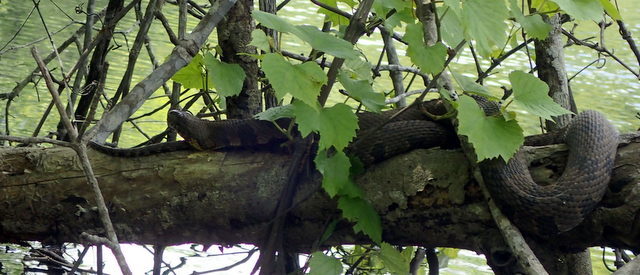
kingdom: Animalia
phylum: Chordata
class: Squamata
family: Colubridae
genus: Nerodia
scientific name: Nerodia taxispilota
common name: Brown water snake
